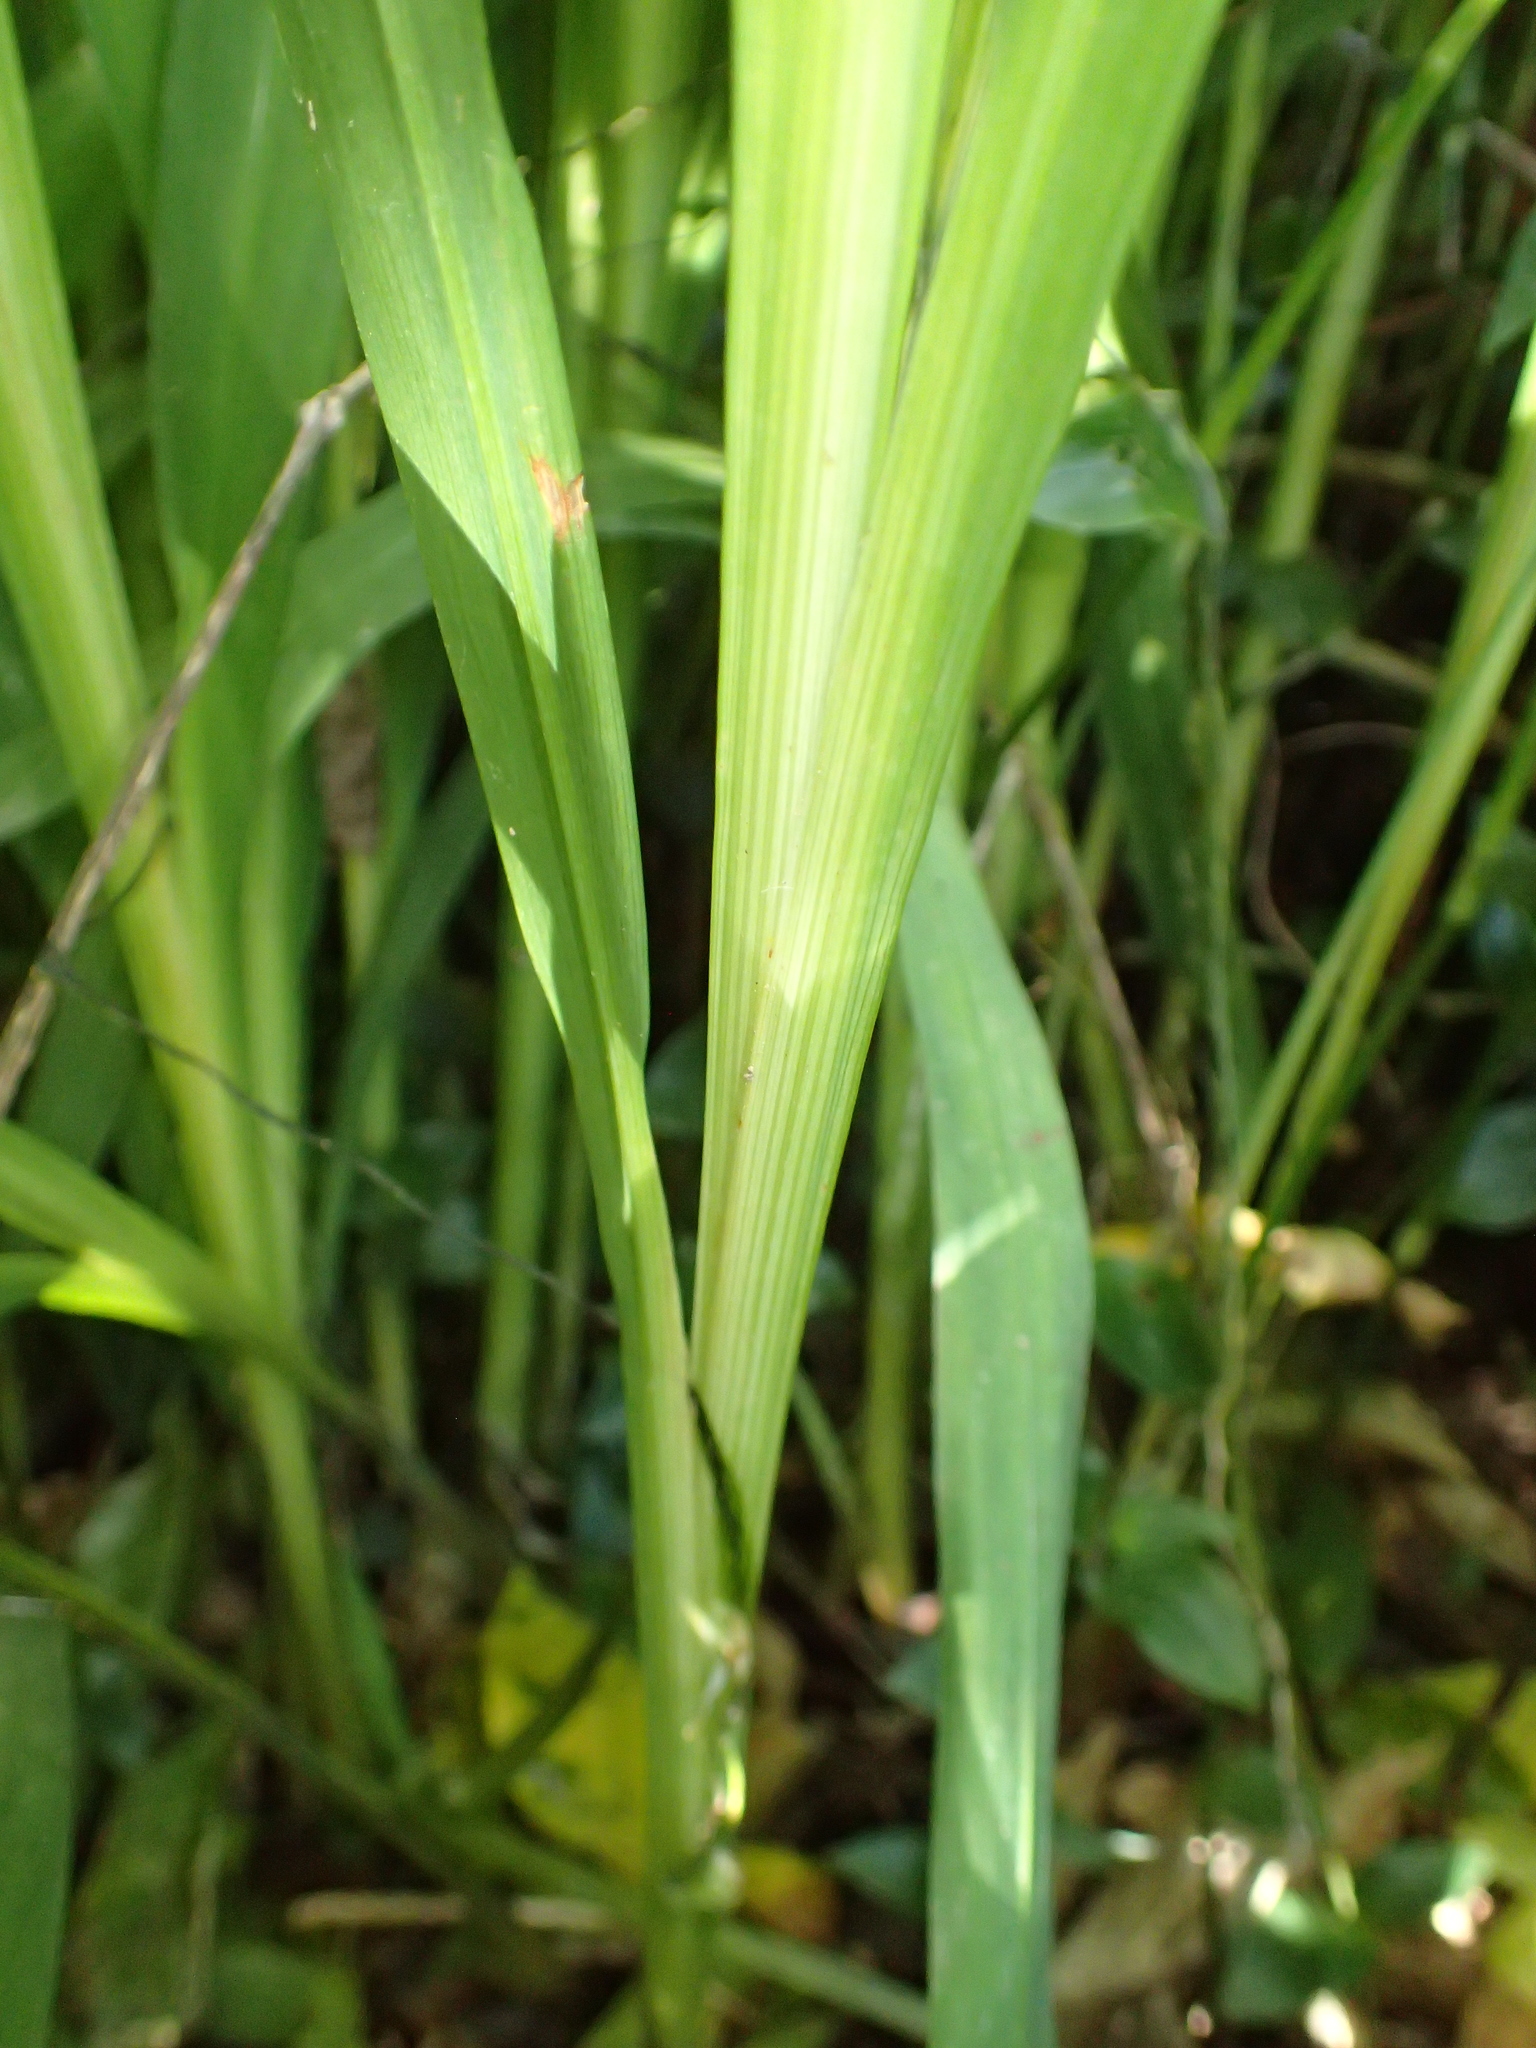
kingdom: Plantae
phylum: Tracheophyta
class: Liliopsida
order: Asparagales
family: Iridaceae
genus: Crocosmia
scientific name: Crocosmia crocosmiiflora
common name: Montbretia
